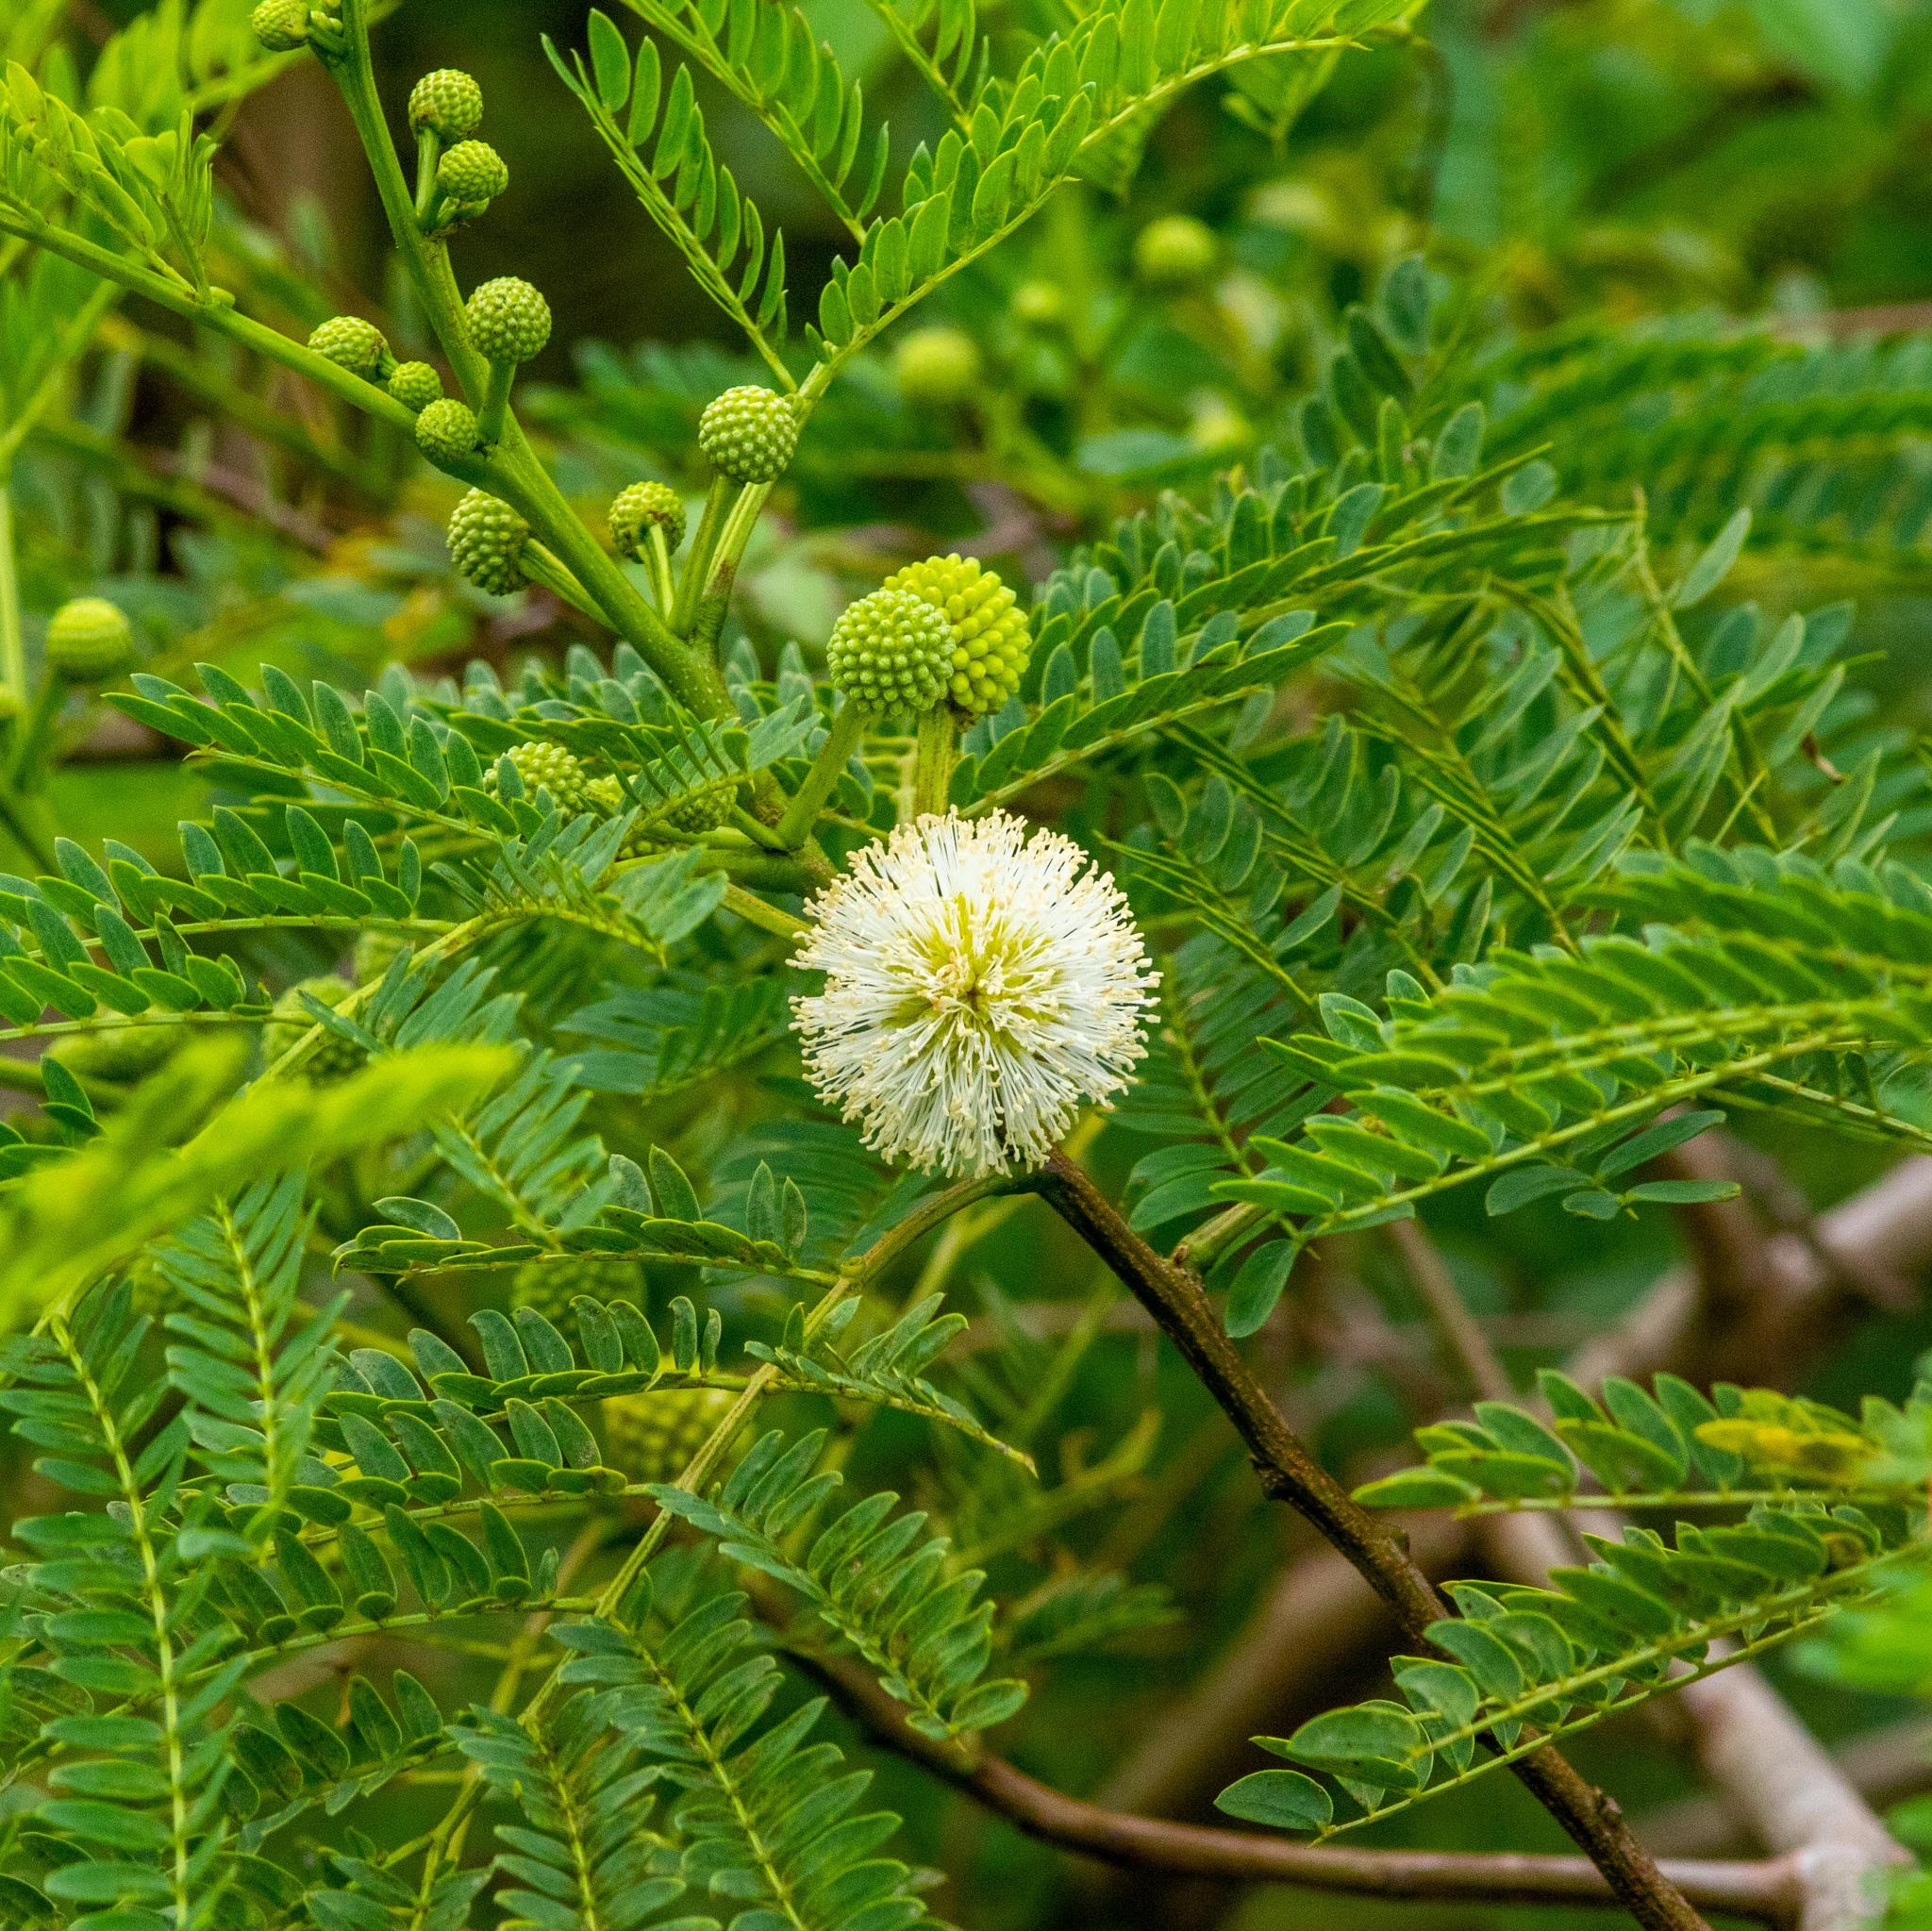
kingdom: Plantae
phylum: Tracheophyta
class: Magnoliopsida
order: Fabales
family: Fabaceae
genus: Leucaena
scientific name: Leucaena leucocephala
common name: White leadtree
